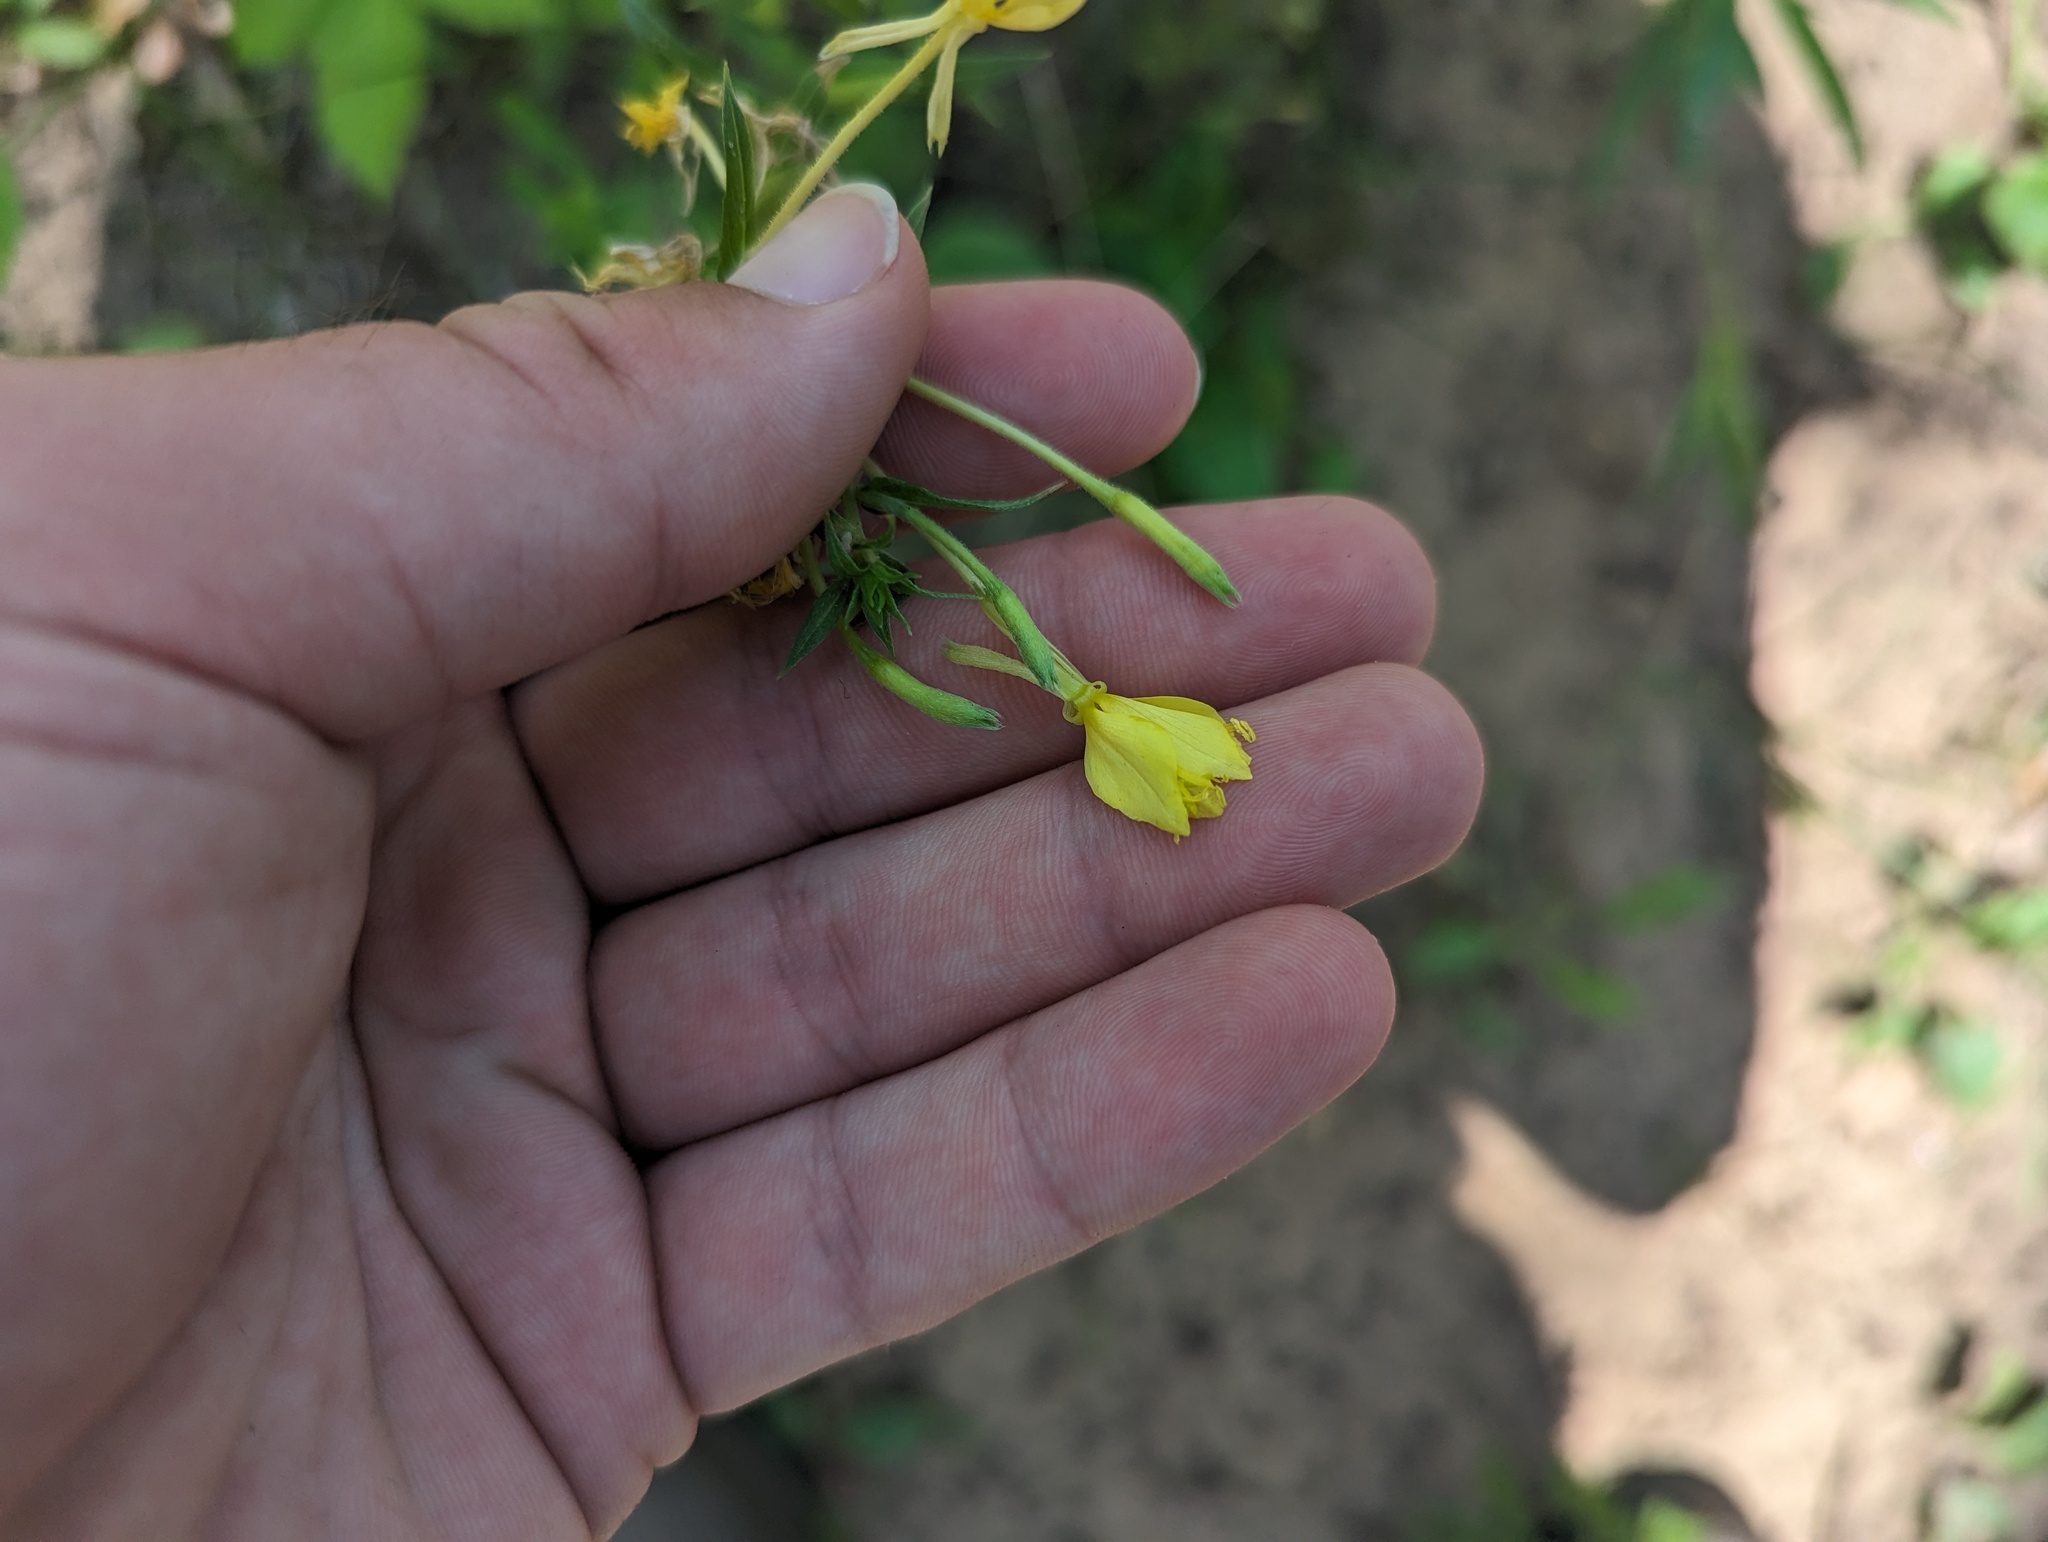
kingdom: Plantae
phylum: Tracheophyta
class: Magnoliopsida
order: Myrtales
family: Onagraceae
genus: Oenothera
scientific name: Oenothera clelandii
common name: Cleland's evening-primrose
